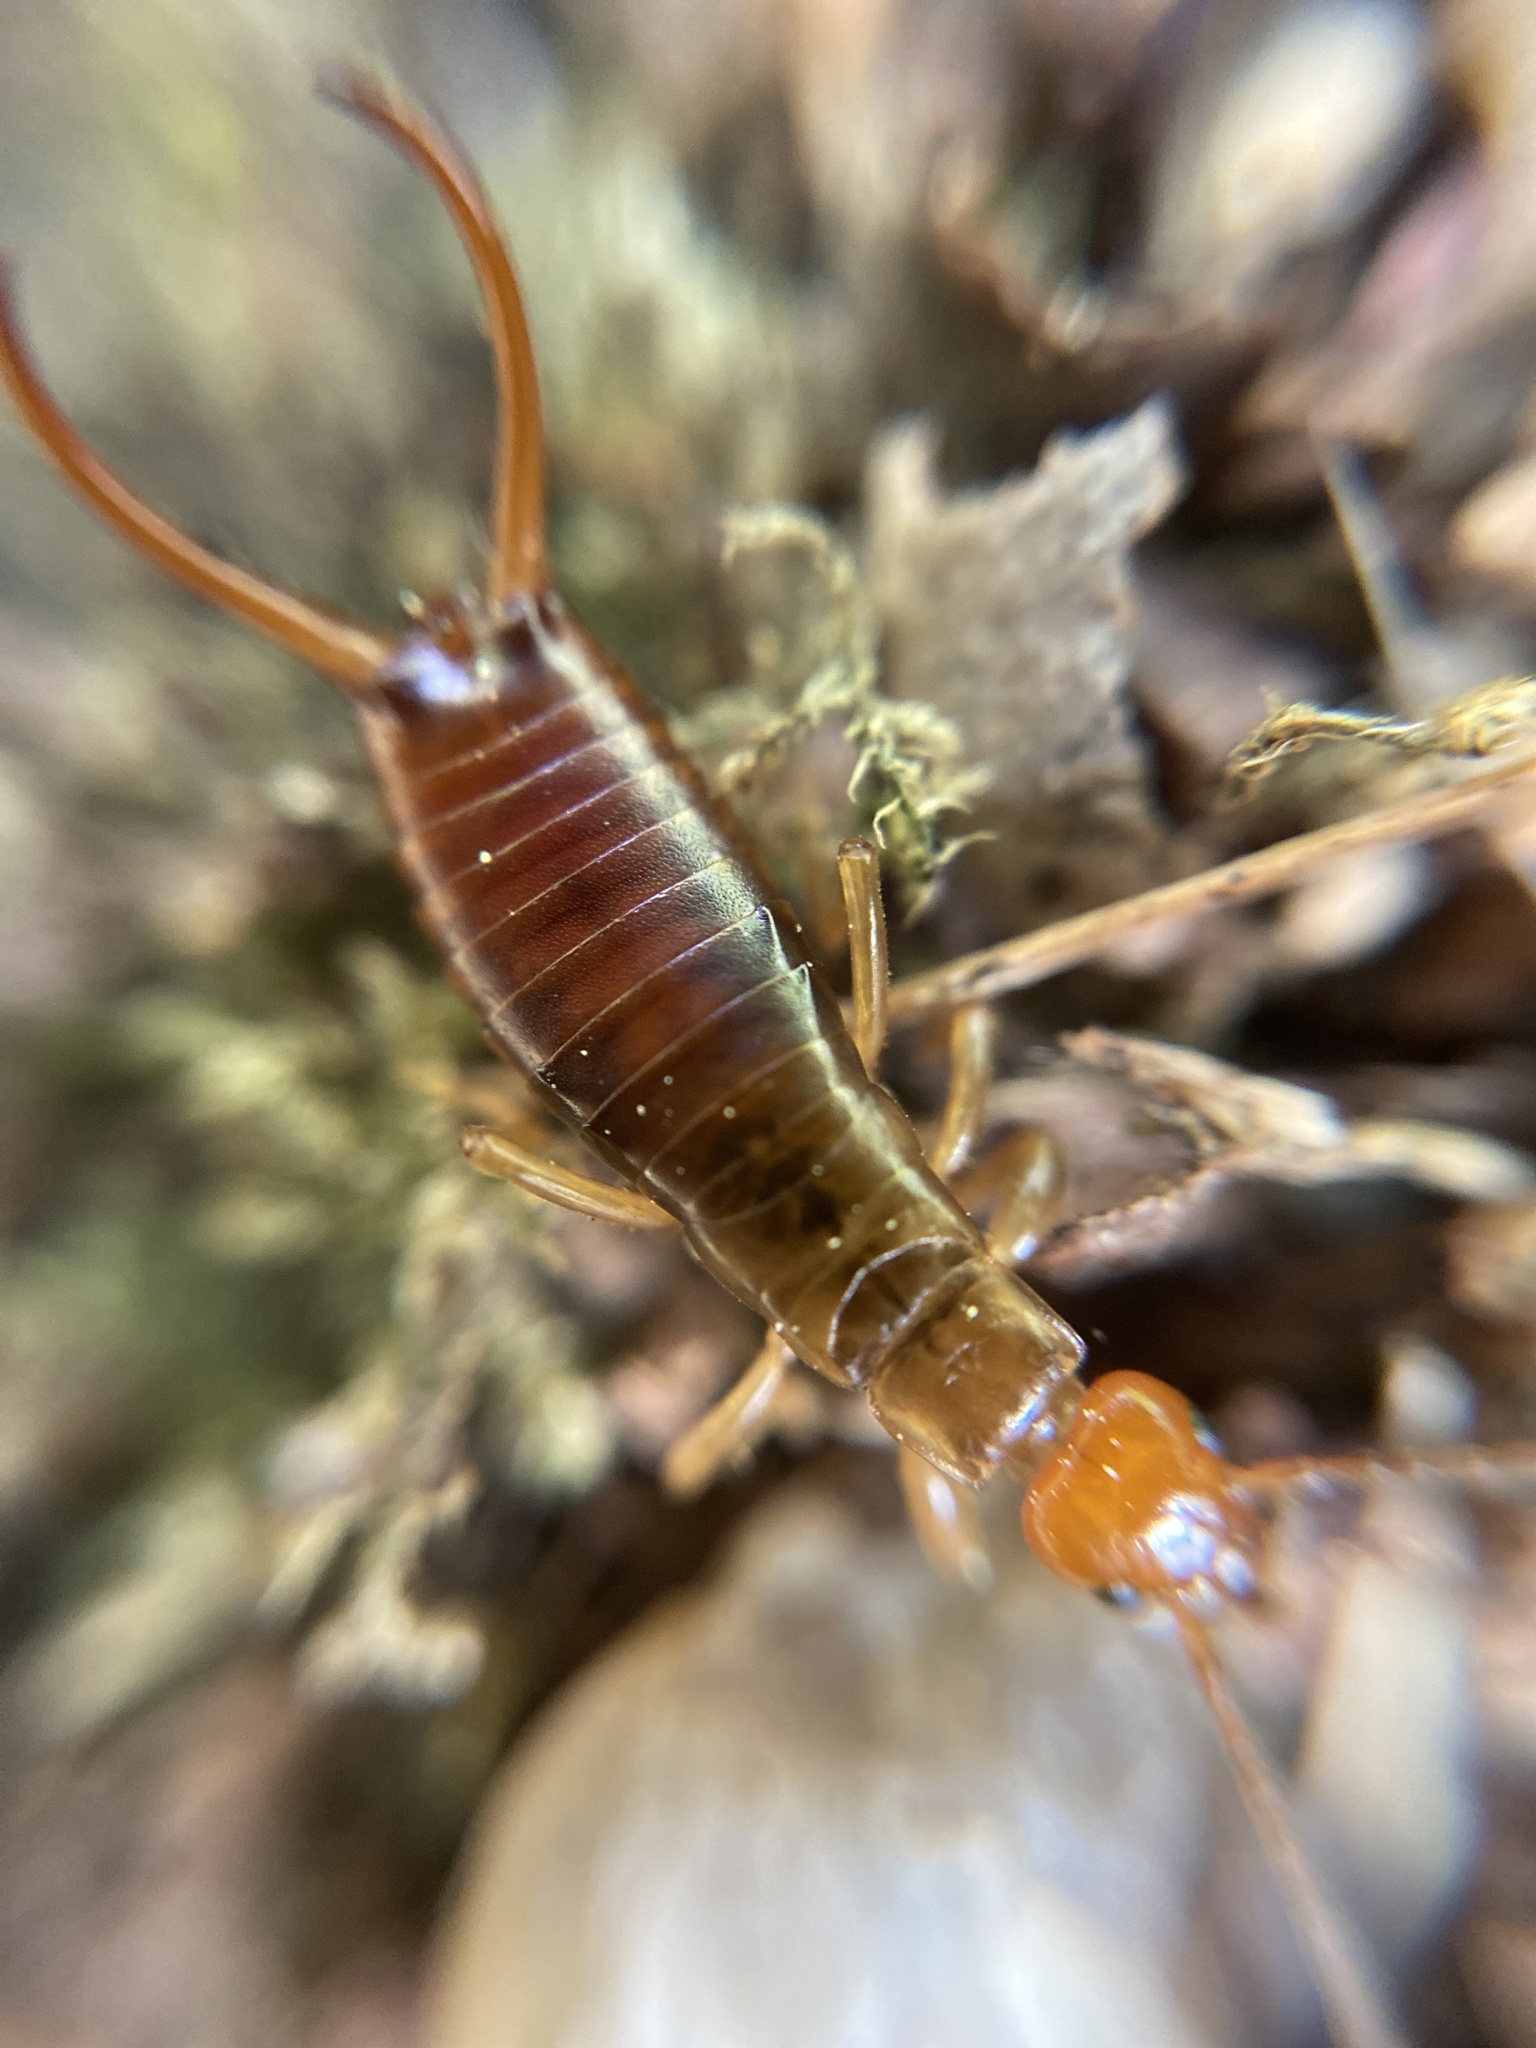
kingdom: Animalia
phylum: Arthropoda
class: Insecta
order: Dermaptera
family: Forficulidae
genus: Chelidurella
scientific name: Chelidurella acanthopygia
